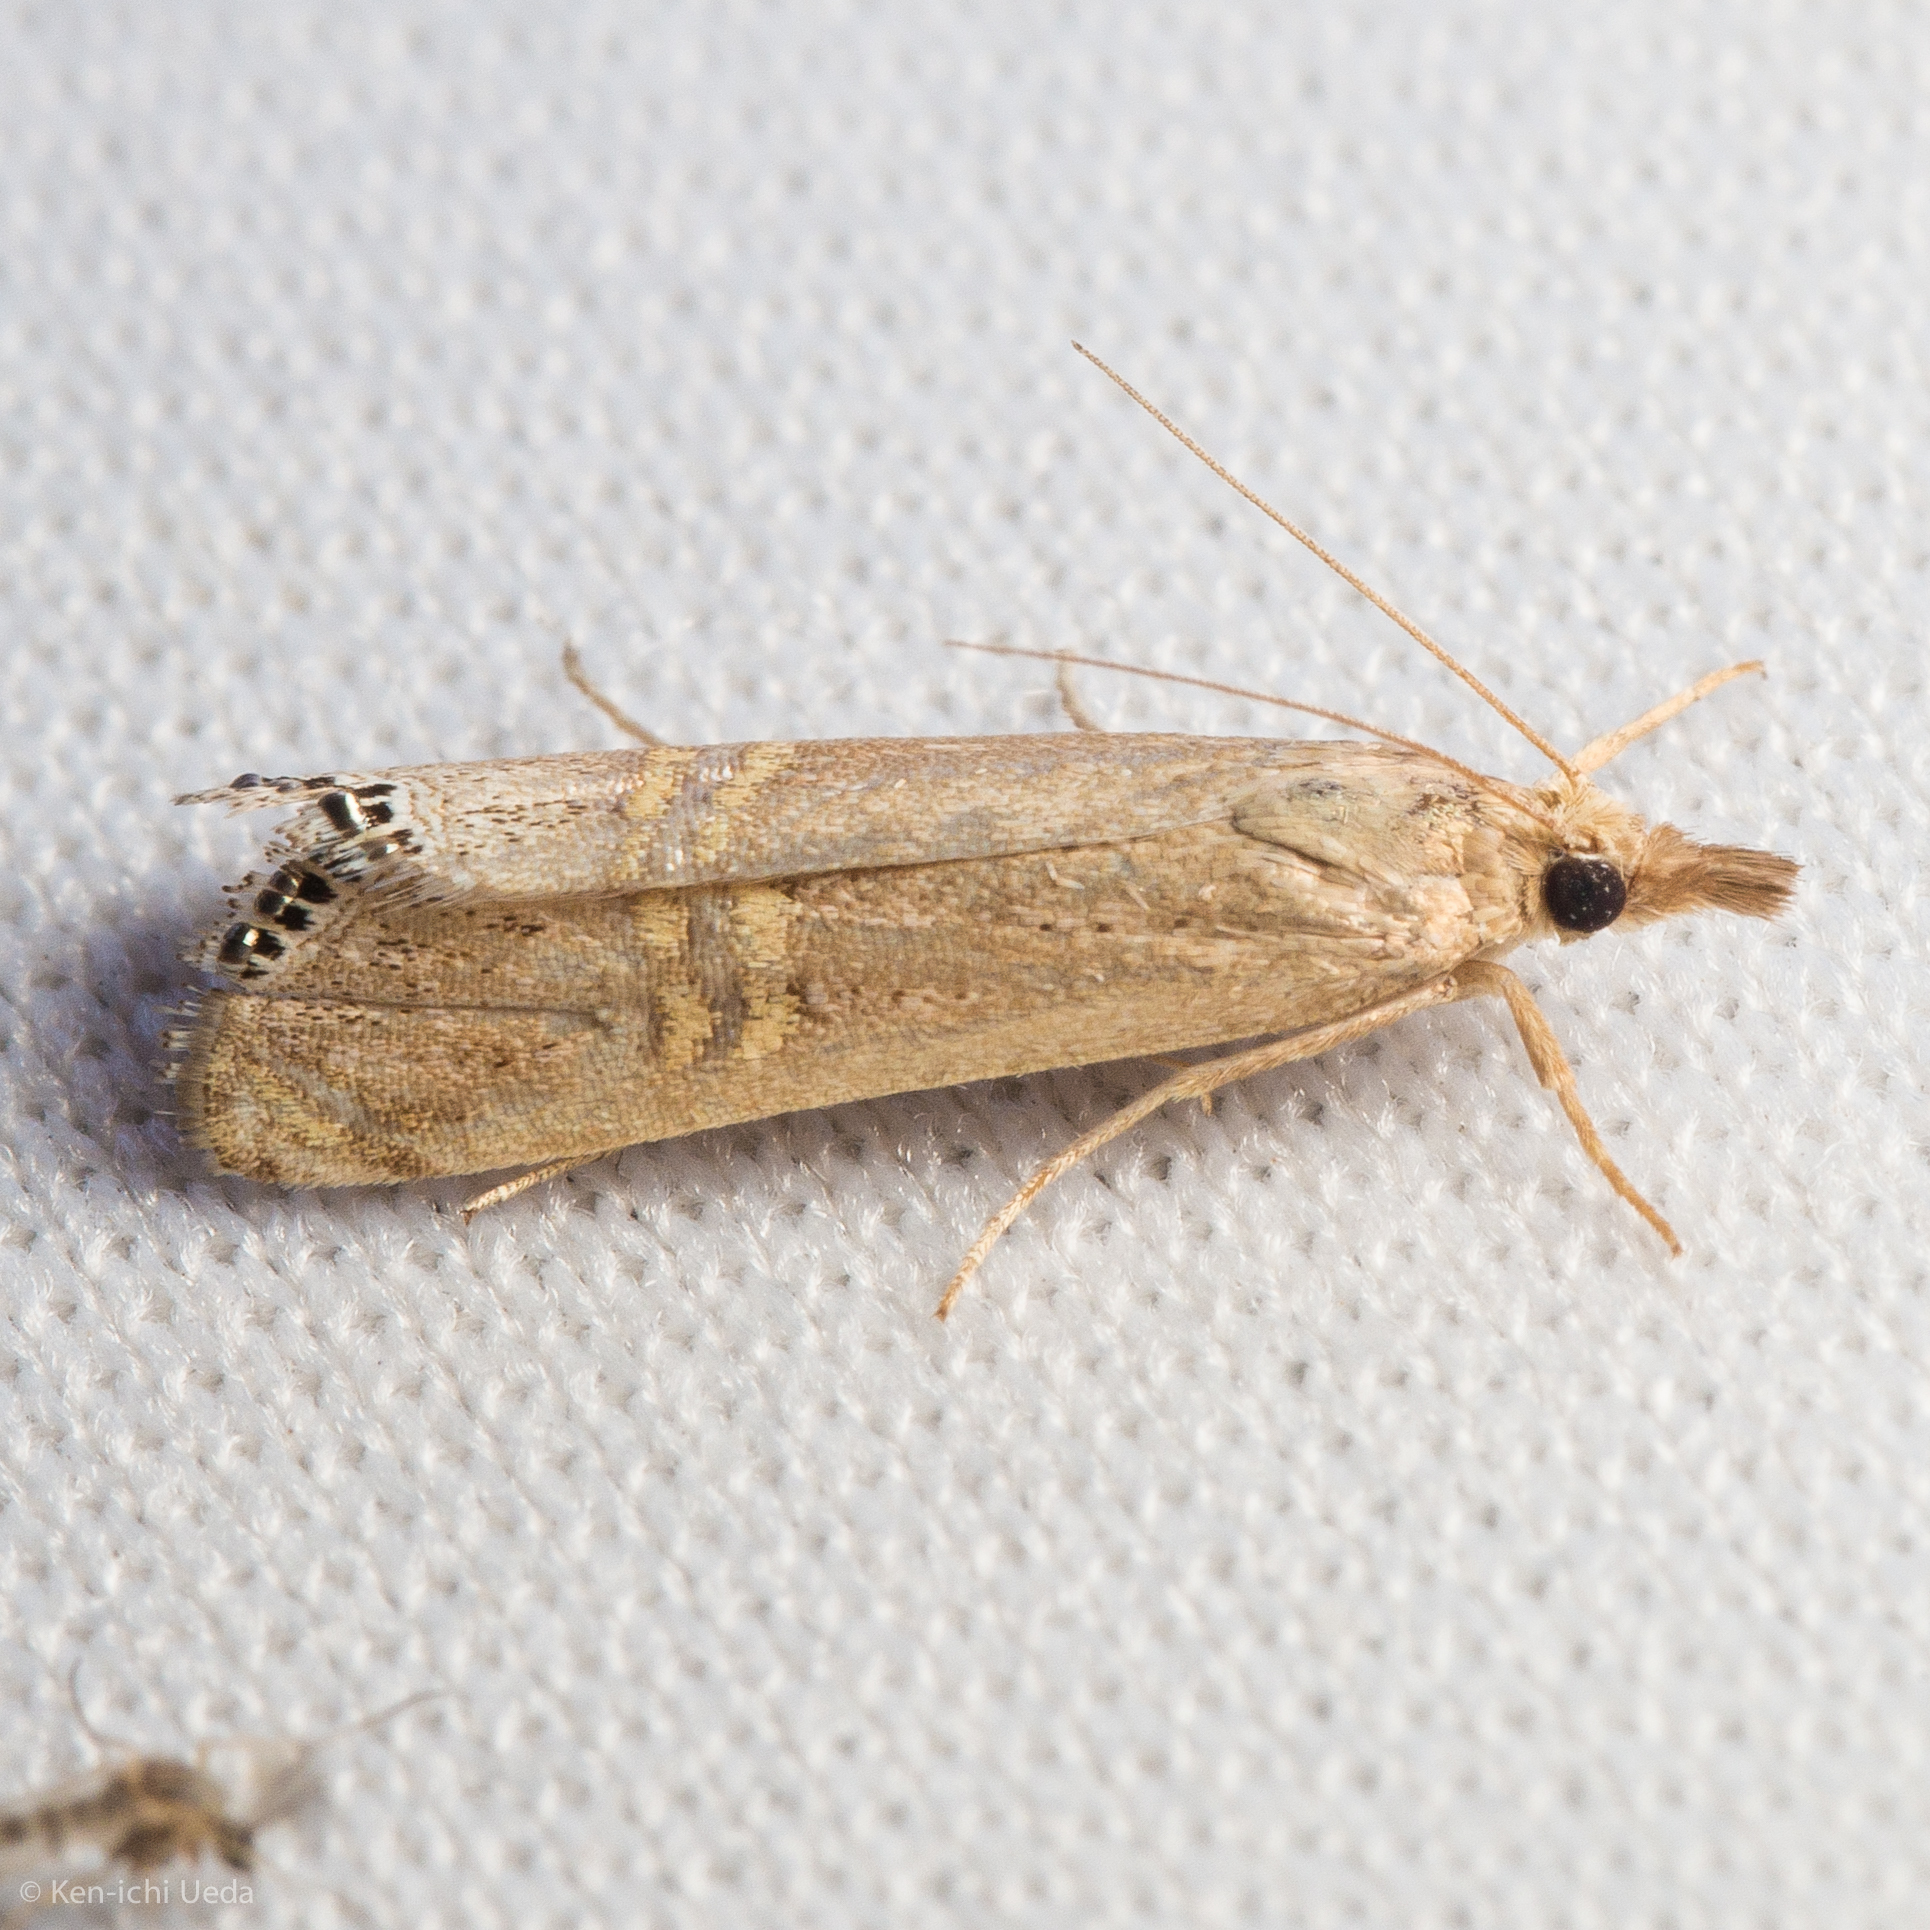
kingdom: Animalia
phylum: Arthropoda
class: Insecta
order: Lepidoptera
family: Crambidae
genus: Euchromius
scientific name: Euchromius ocellea
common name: Necklace veneer moth
